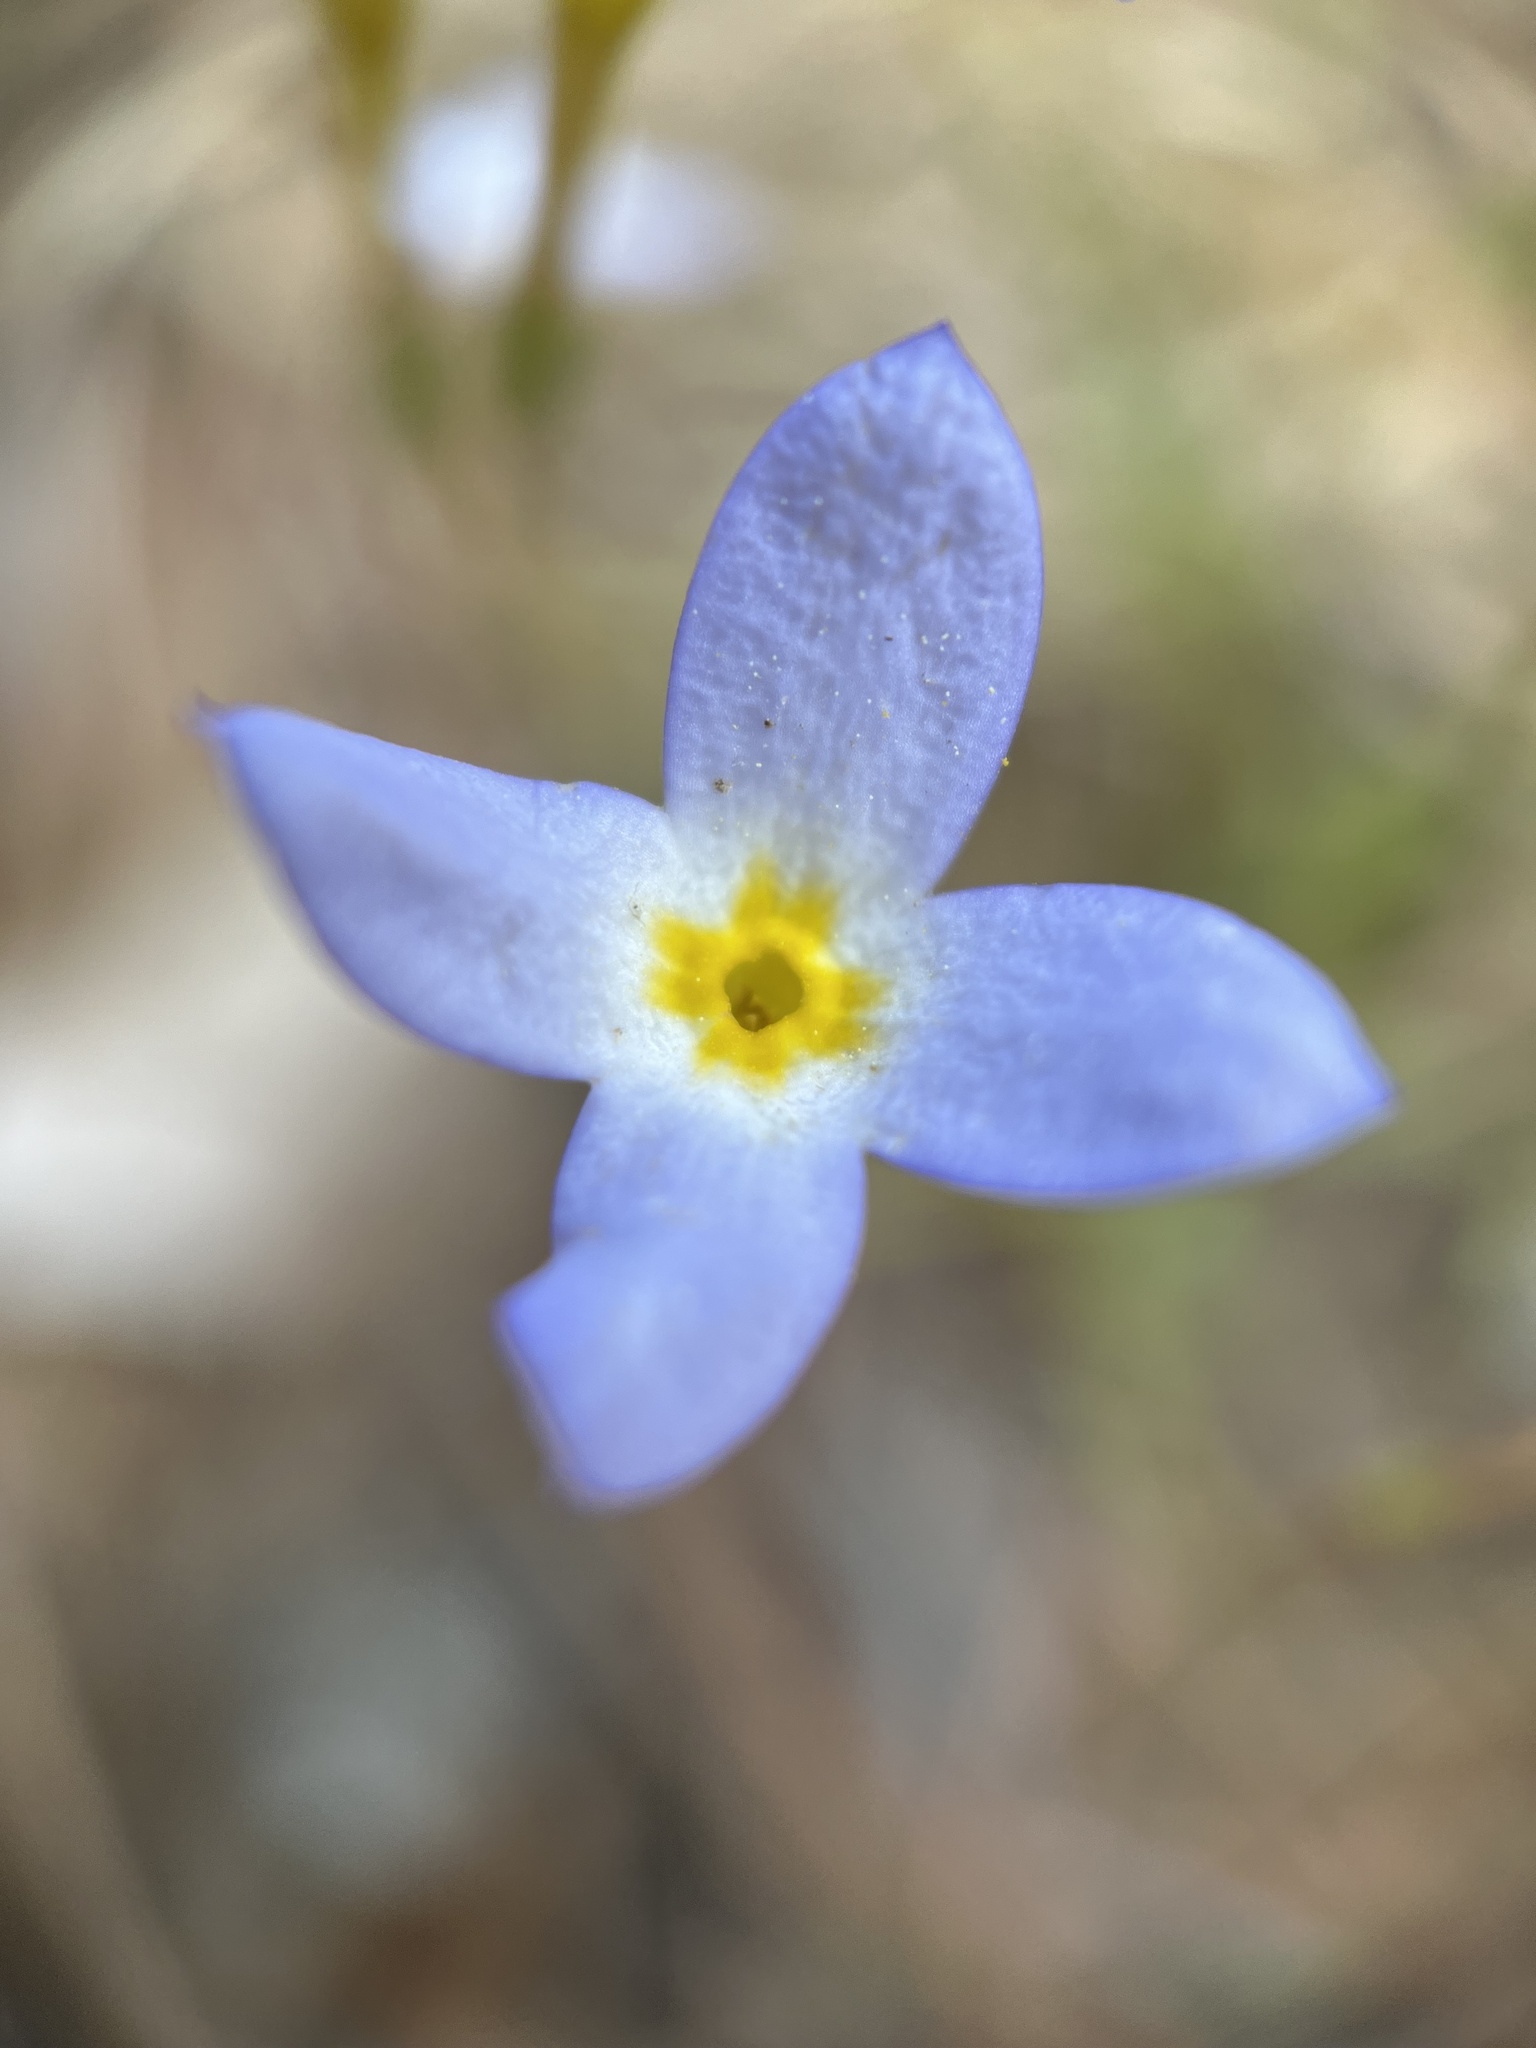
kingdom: Plantae
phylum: Tracheophyta
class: Magnoliopsida
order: Gentianales
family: Rubiaceae
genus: Houstonia
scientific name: Houstonia caerulea
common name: Bluets
